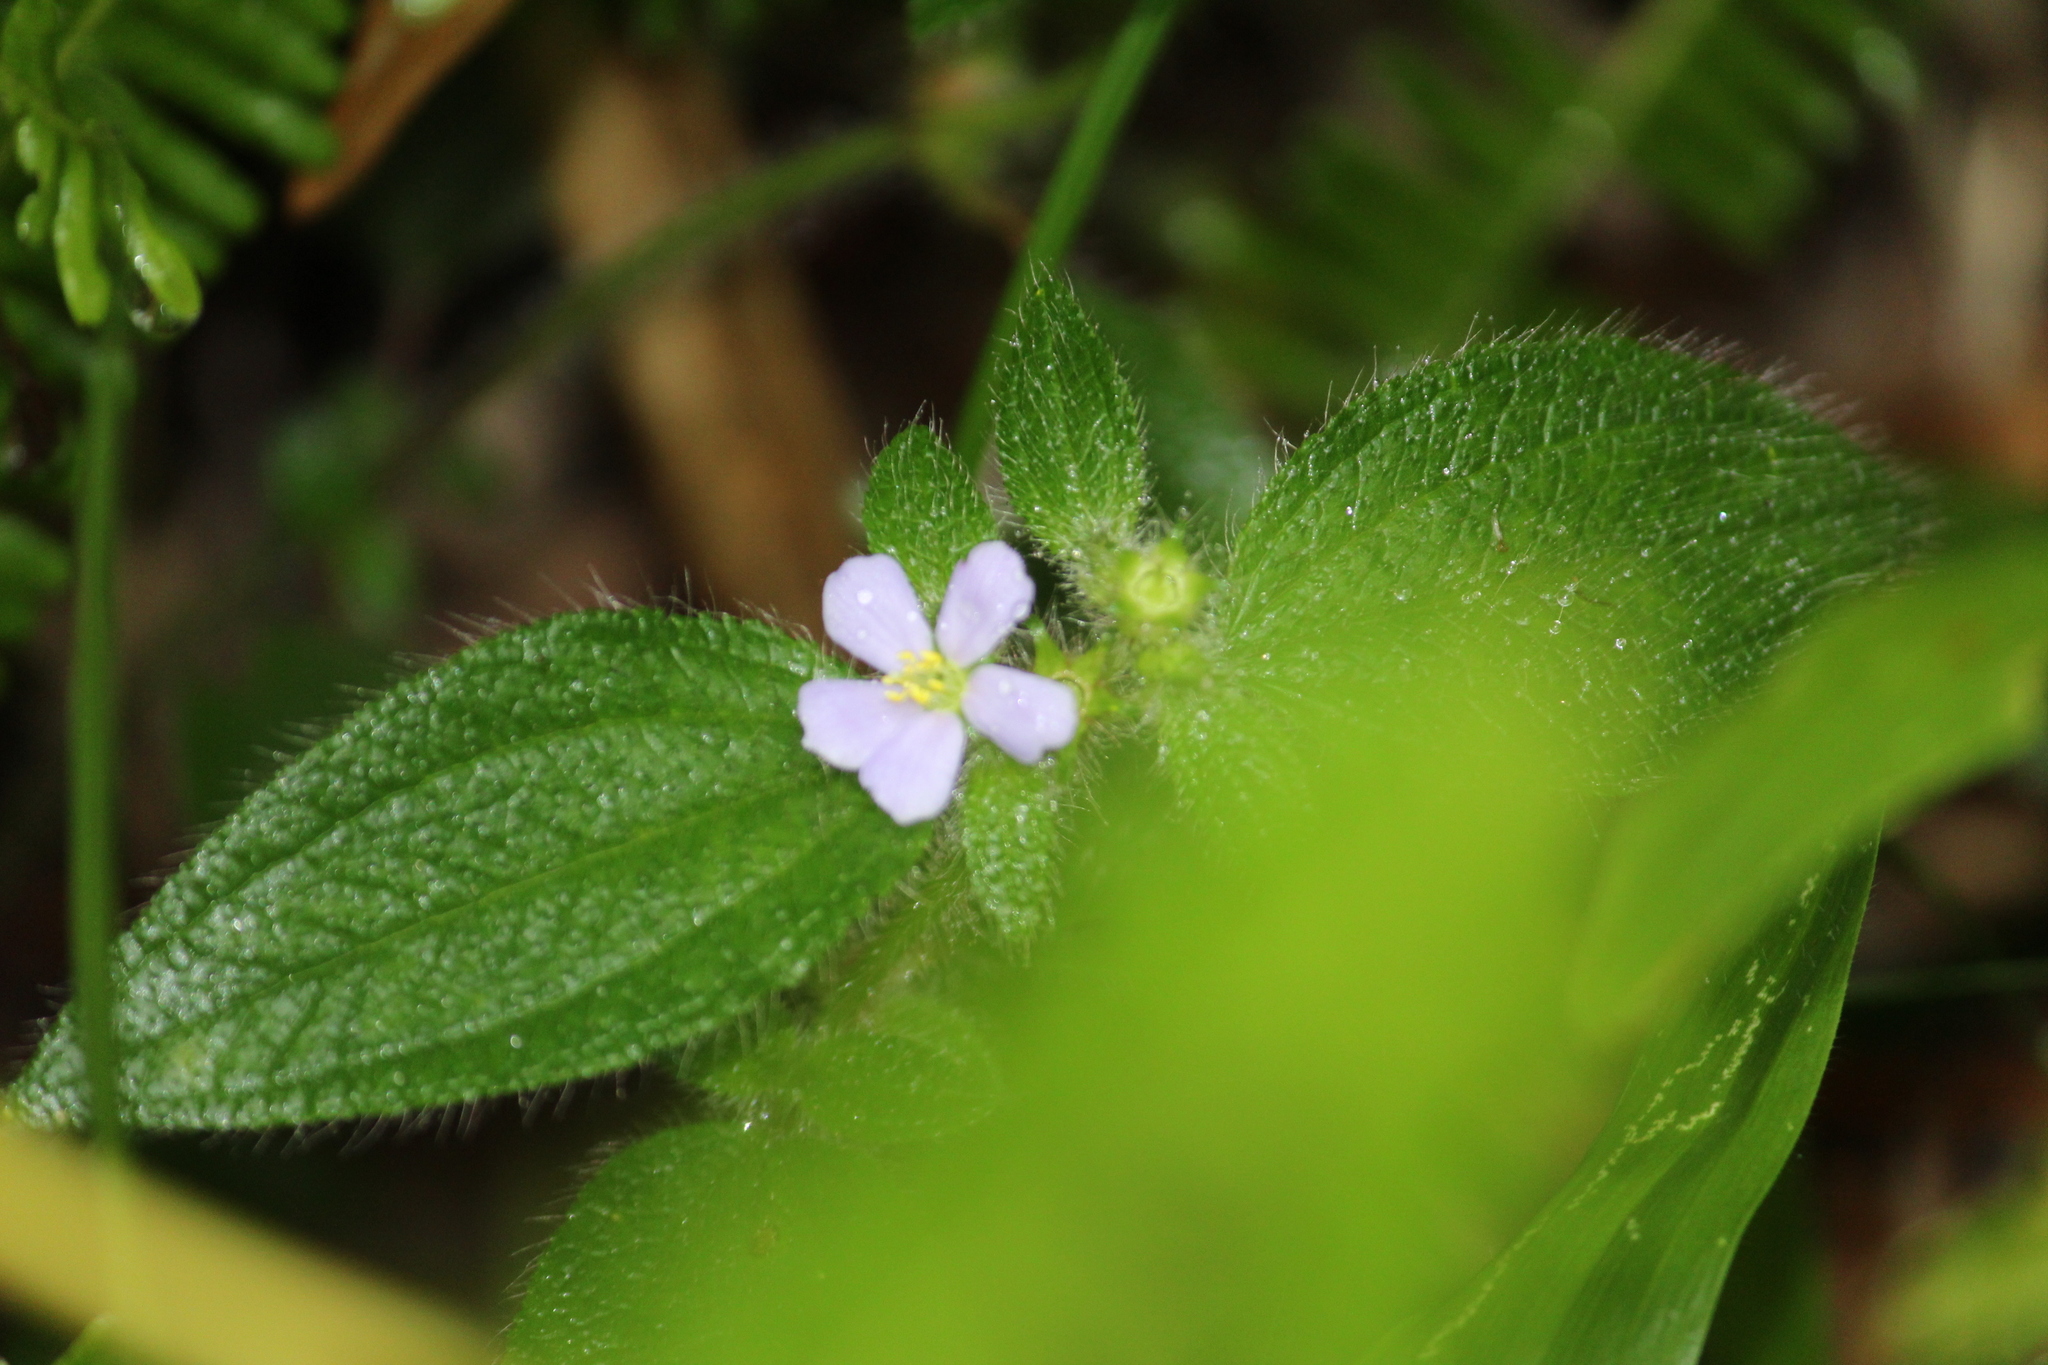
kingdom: Plantae
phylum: Tracheophyta
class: Magnoliopsida
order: Myrtales
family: Melastomataceae
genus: Chaetogastra
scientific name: Chaetogastra clinopodifolia
